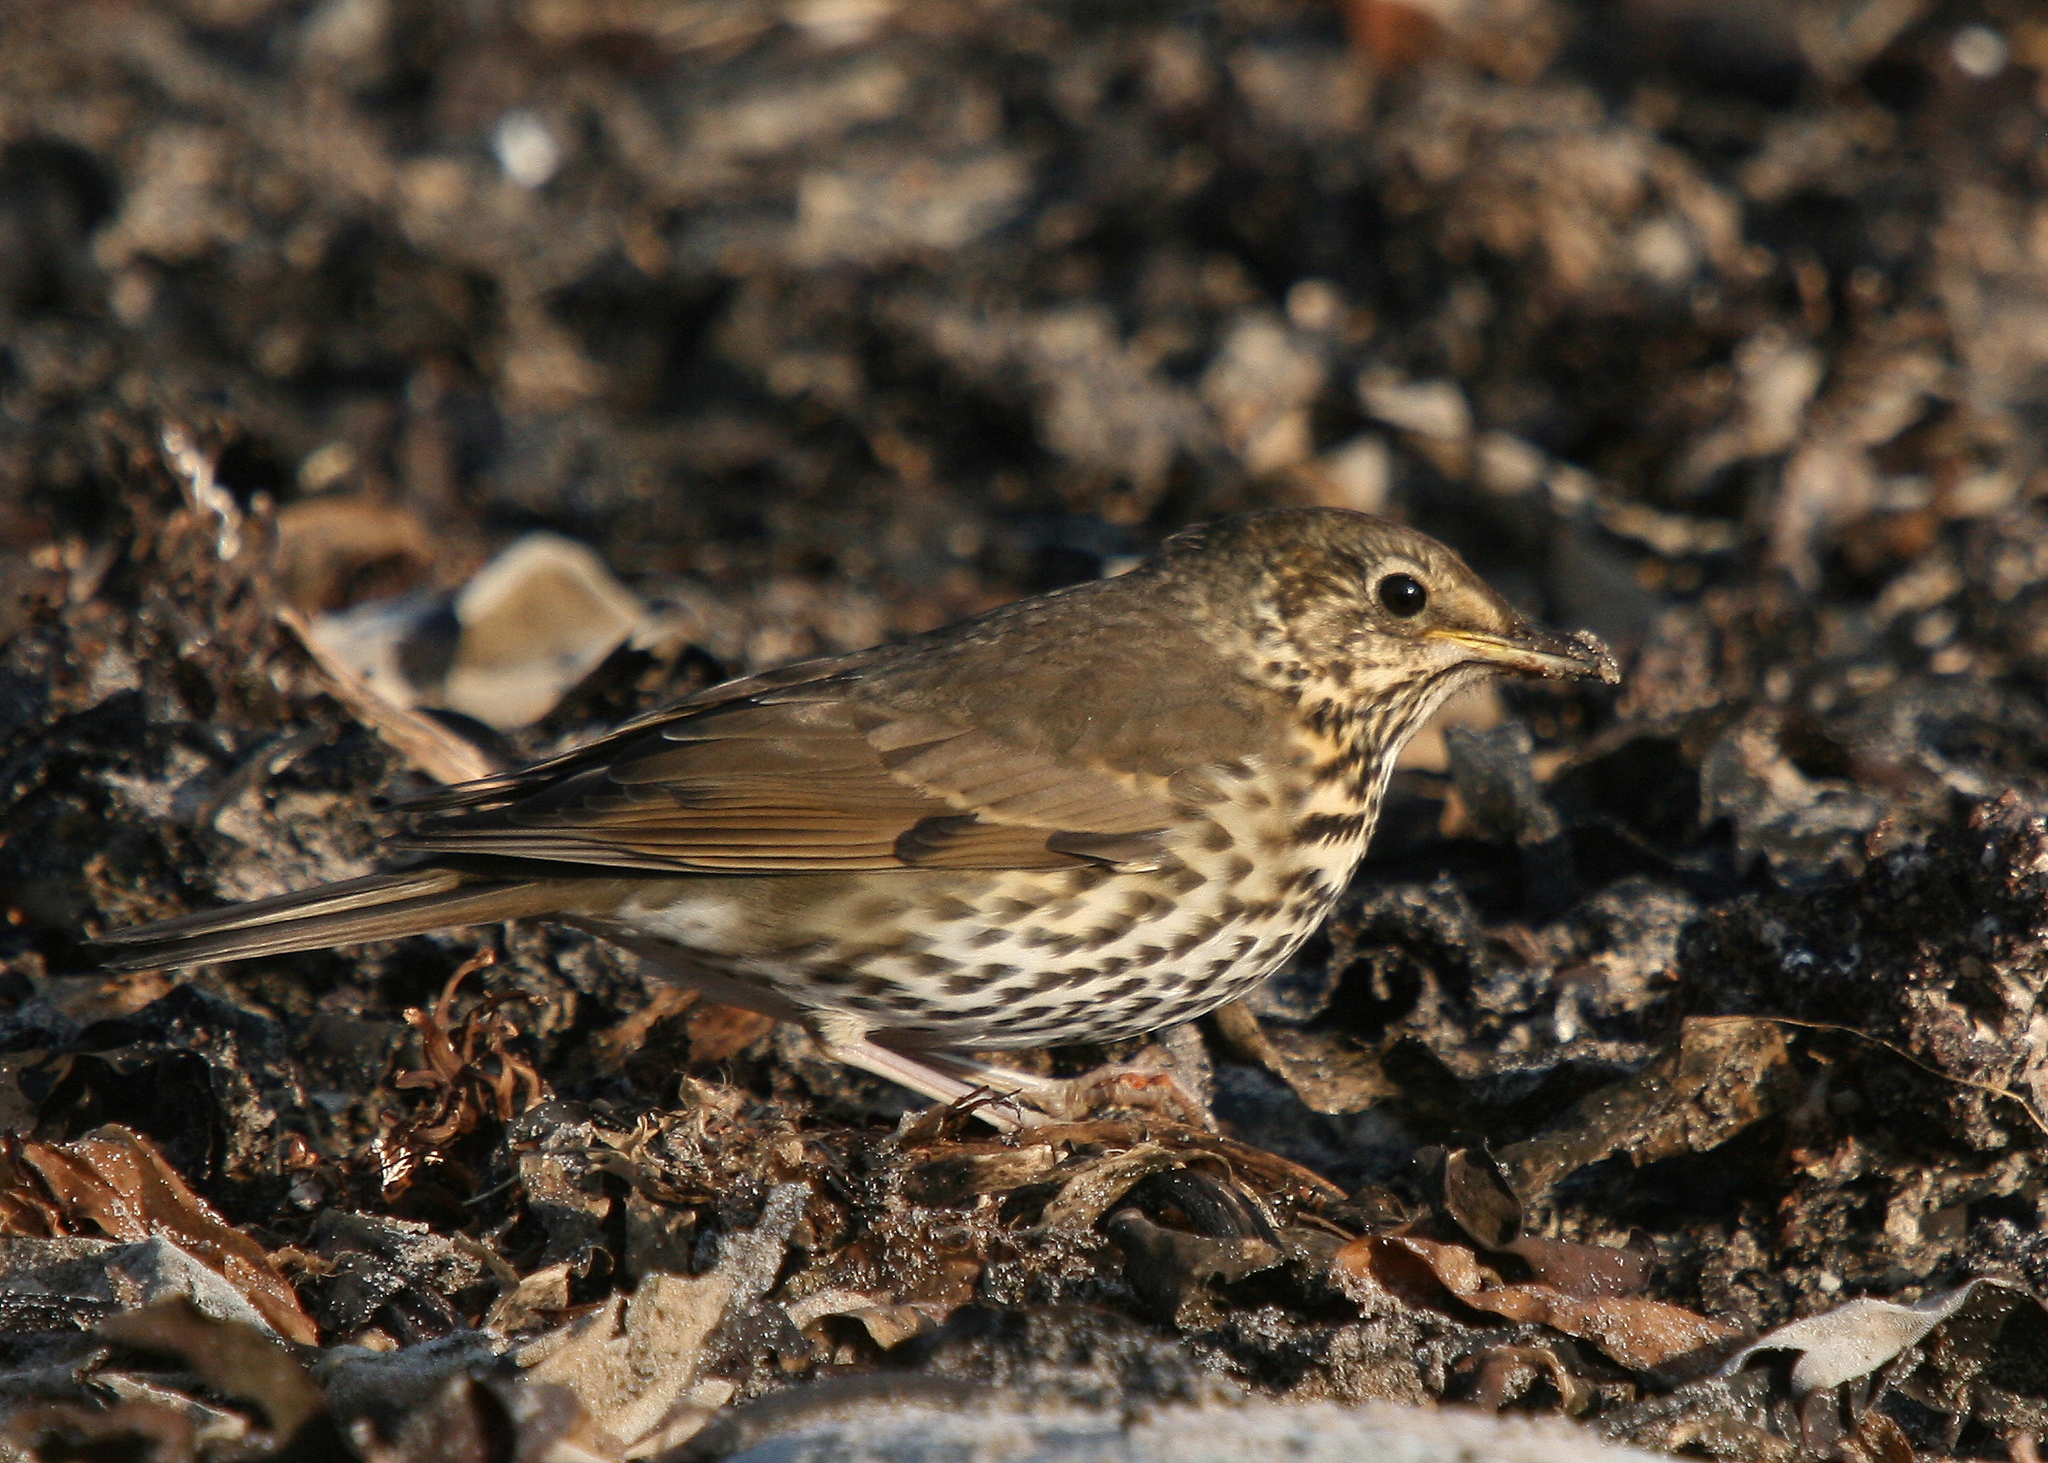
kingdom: Animalia
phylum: Chordata
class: Aves
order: Passeriformes
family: Turdidae
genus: Turdus
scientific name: Turdus philomelos
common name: Song thrush
